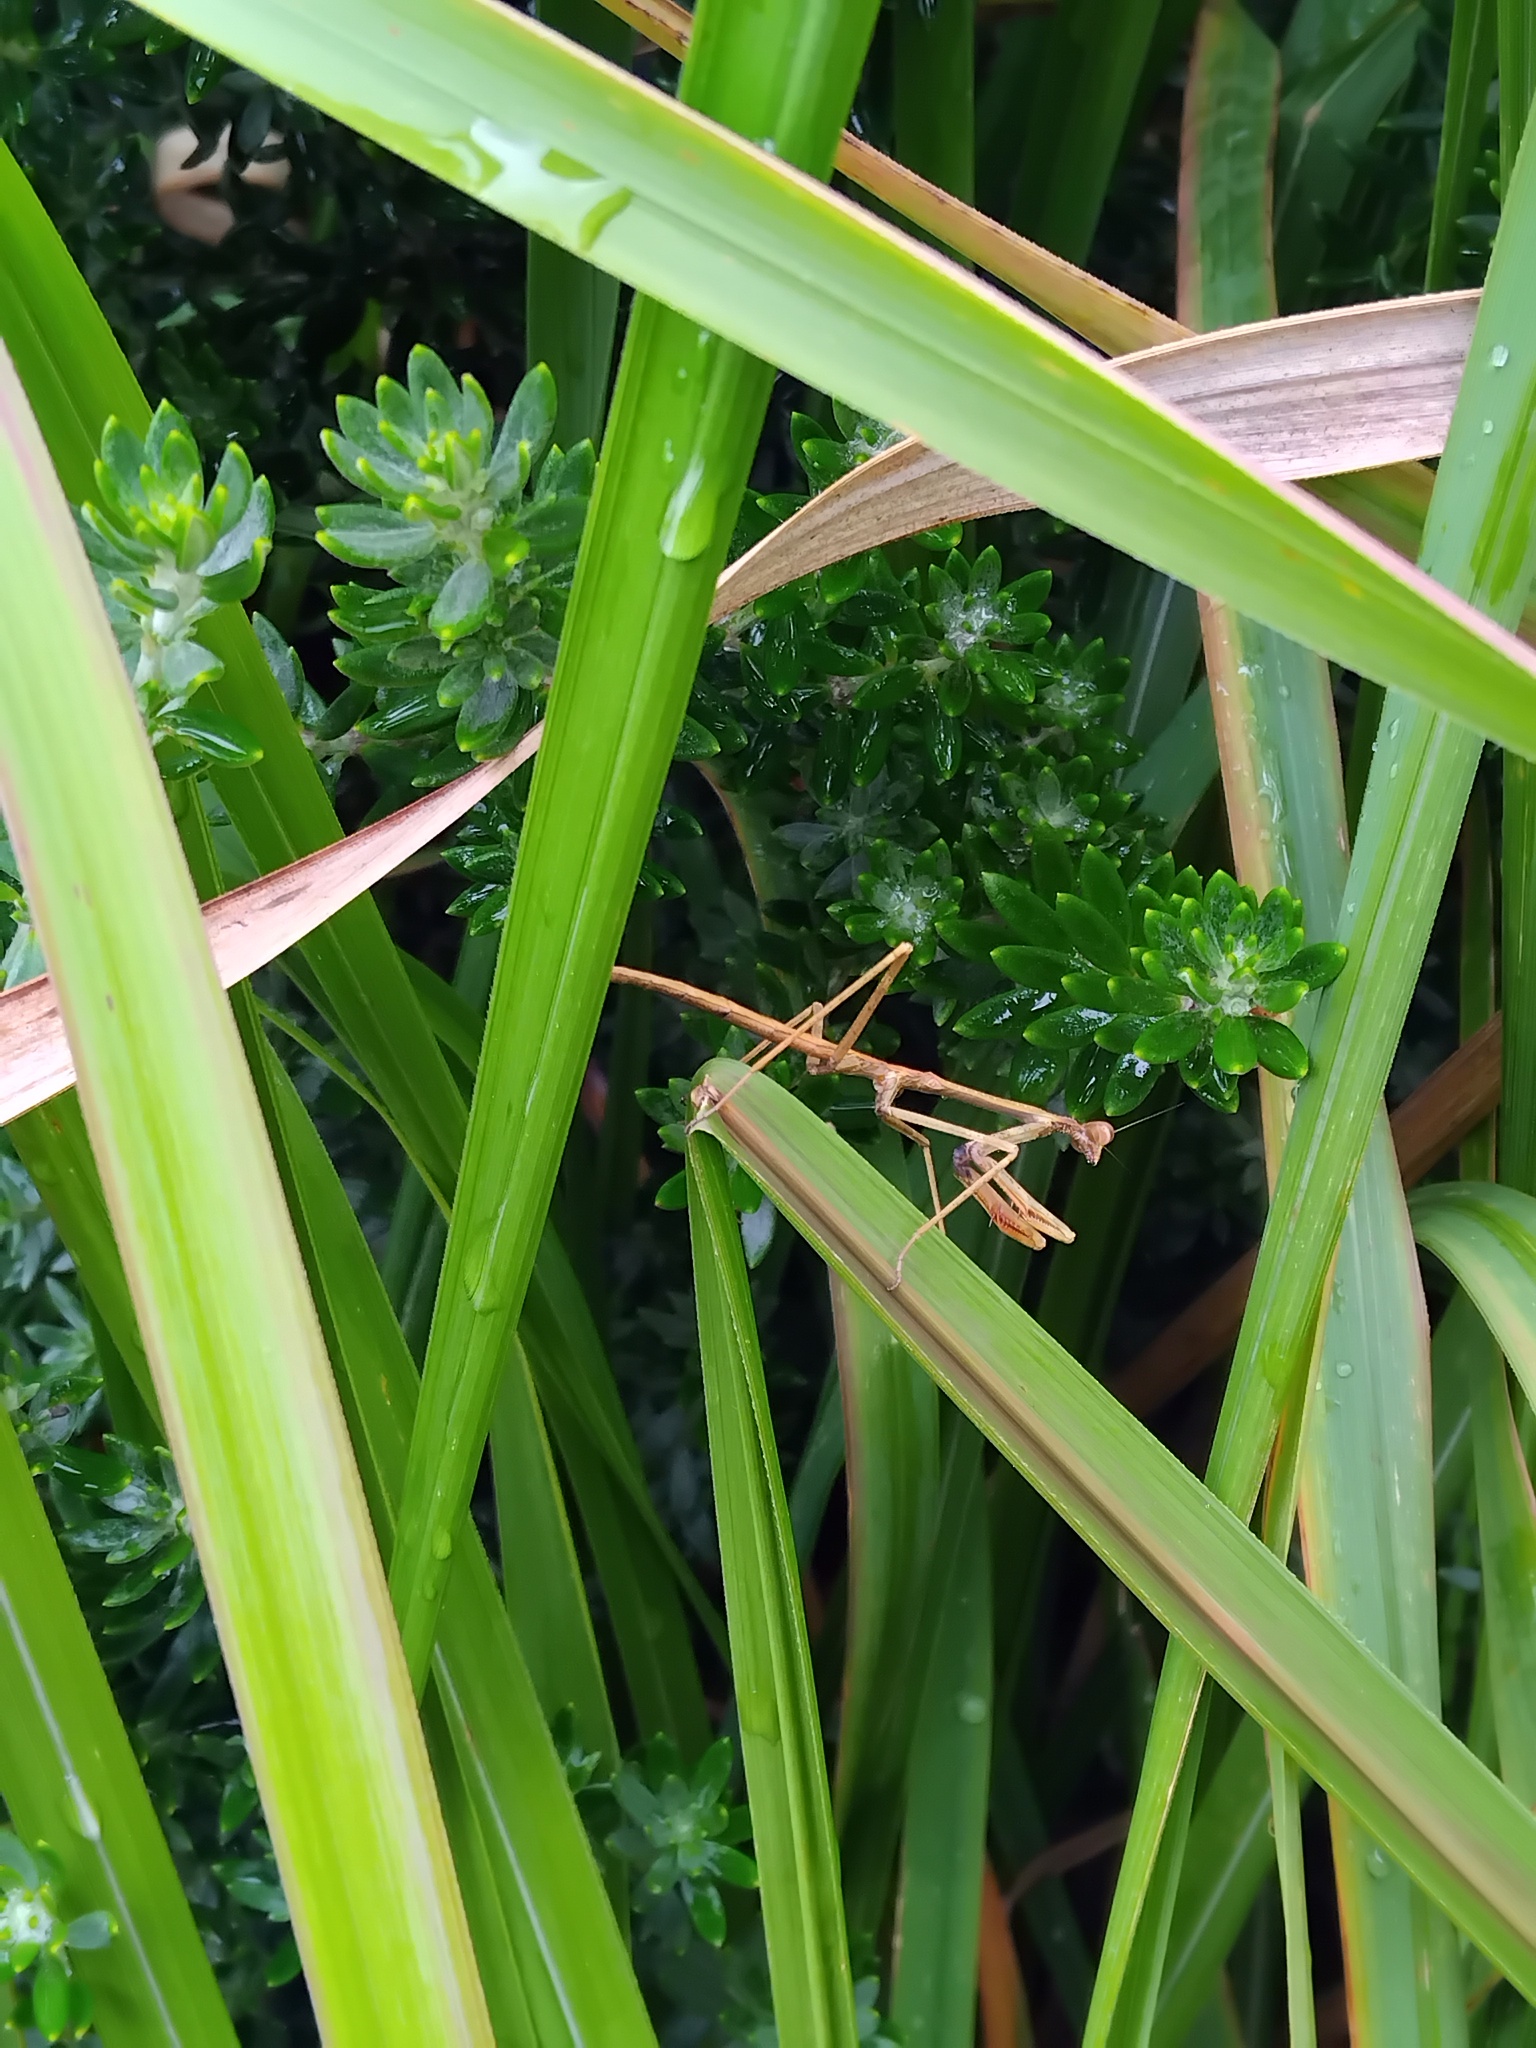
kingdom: Animalia
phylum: Arthropoda
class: Insecta
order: Mantodea
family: Mantidae
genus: Archimantis
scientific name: Archimantis latistyla
